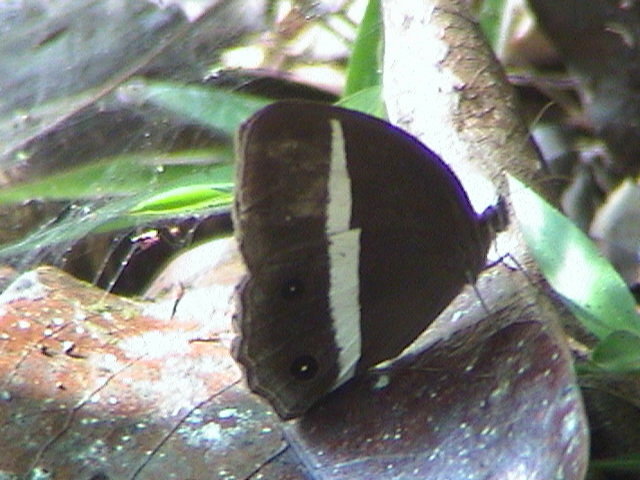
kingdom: Animalia
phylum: Arthropoda
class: Insecta
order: Lepidoptera
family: Nymphalidae
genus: Orsotriaena
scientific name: Orsotriaena medus
